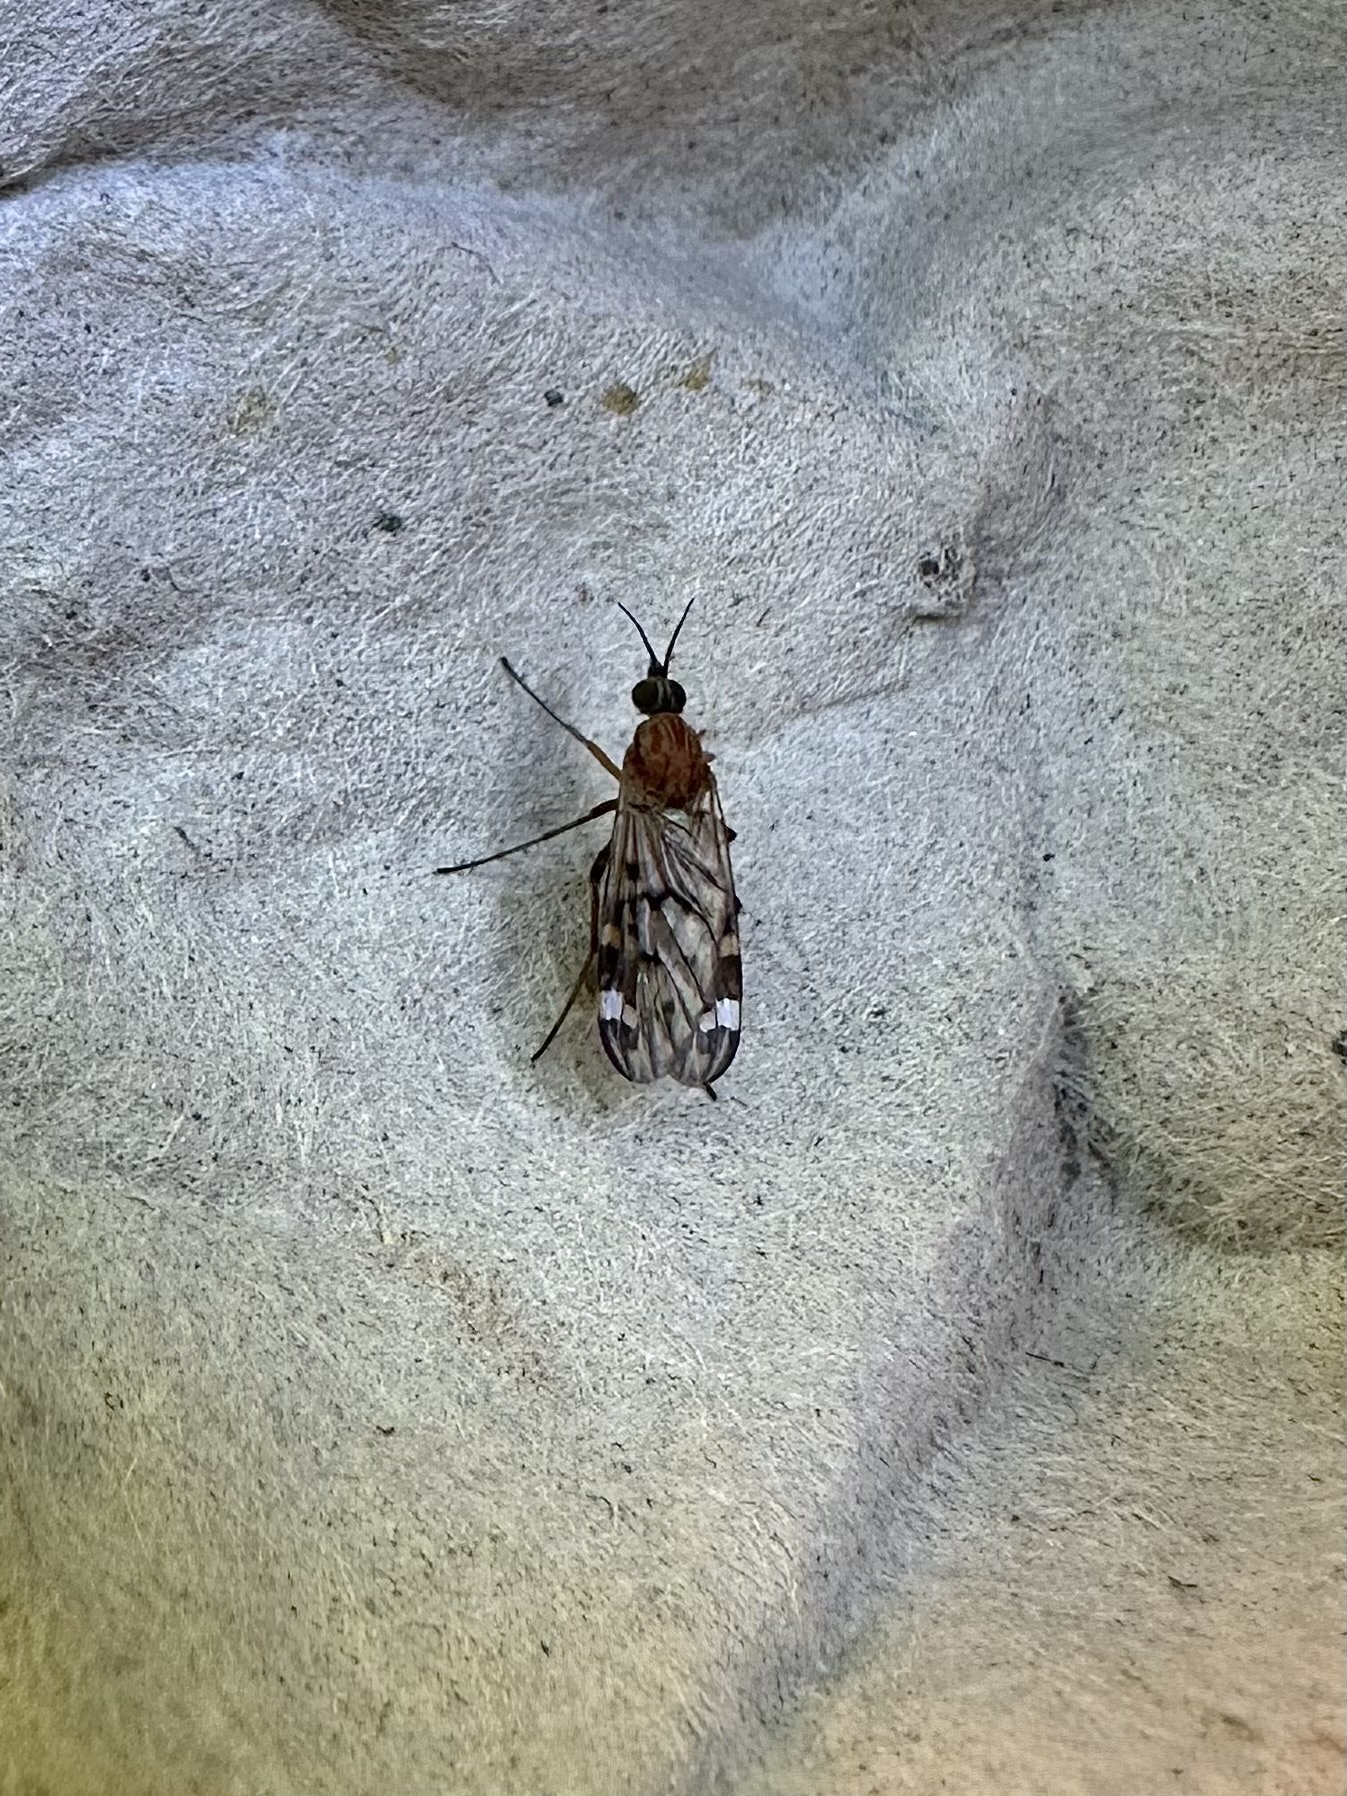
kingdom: Animalia
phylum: Arthropoda
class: Insecta
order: Diptera
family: Anisopodidae
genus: Sylvicola
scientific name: Sylvicola alternata
